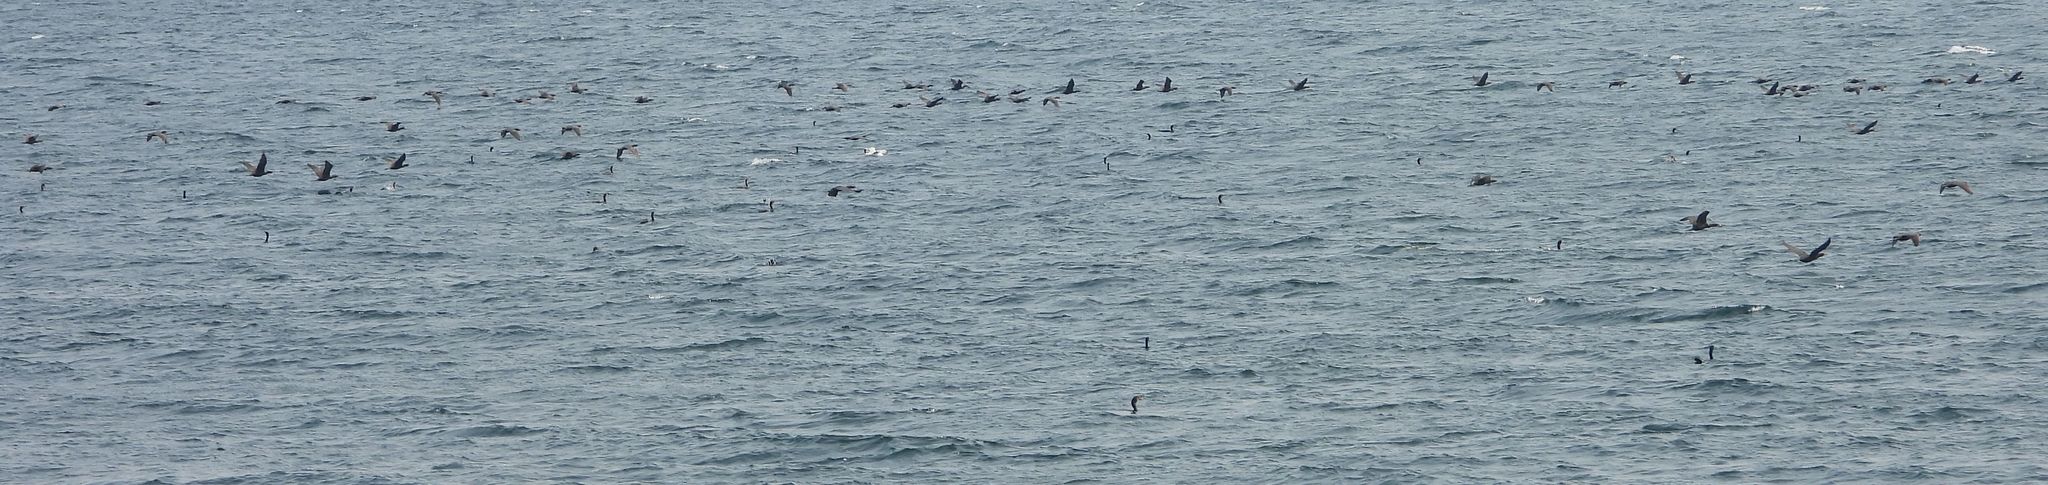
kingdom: Animalia
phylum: Chordata
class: Aves
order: Suliformes
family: Phalacrocoracidae
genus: Phalacrocorax
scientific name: Phalacrocorax auritus
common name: Double-crested cormorant
